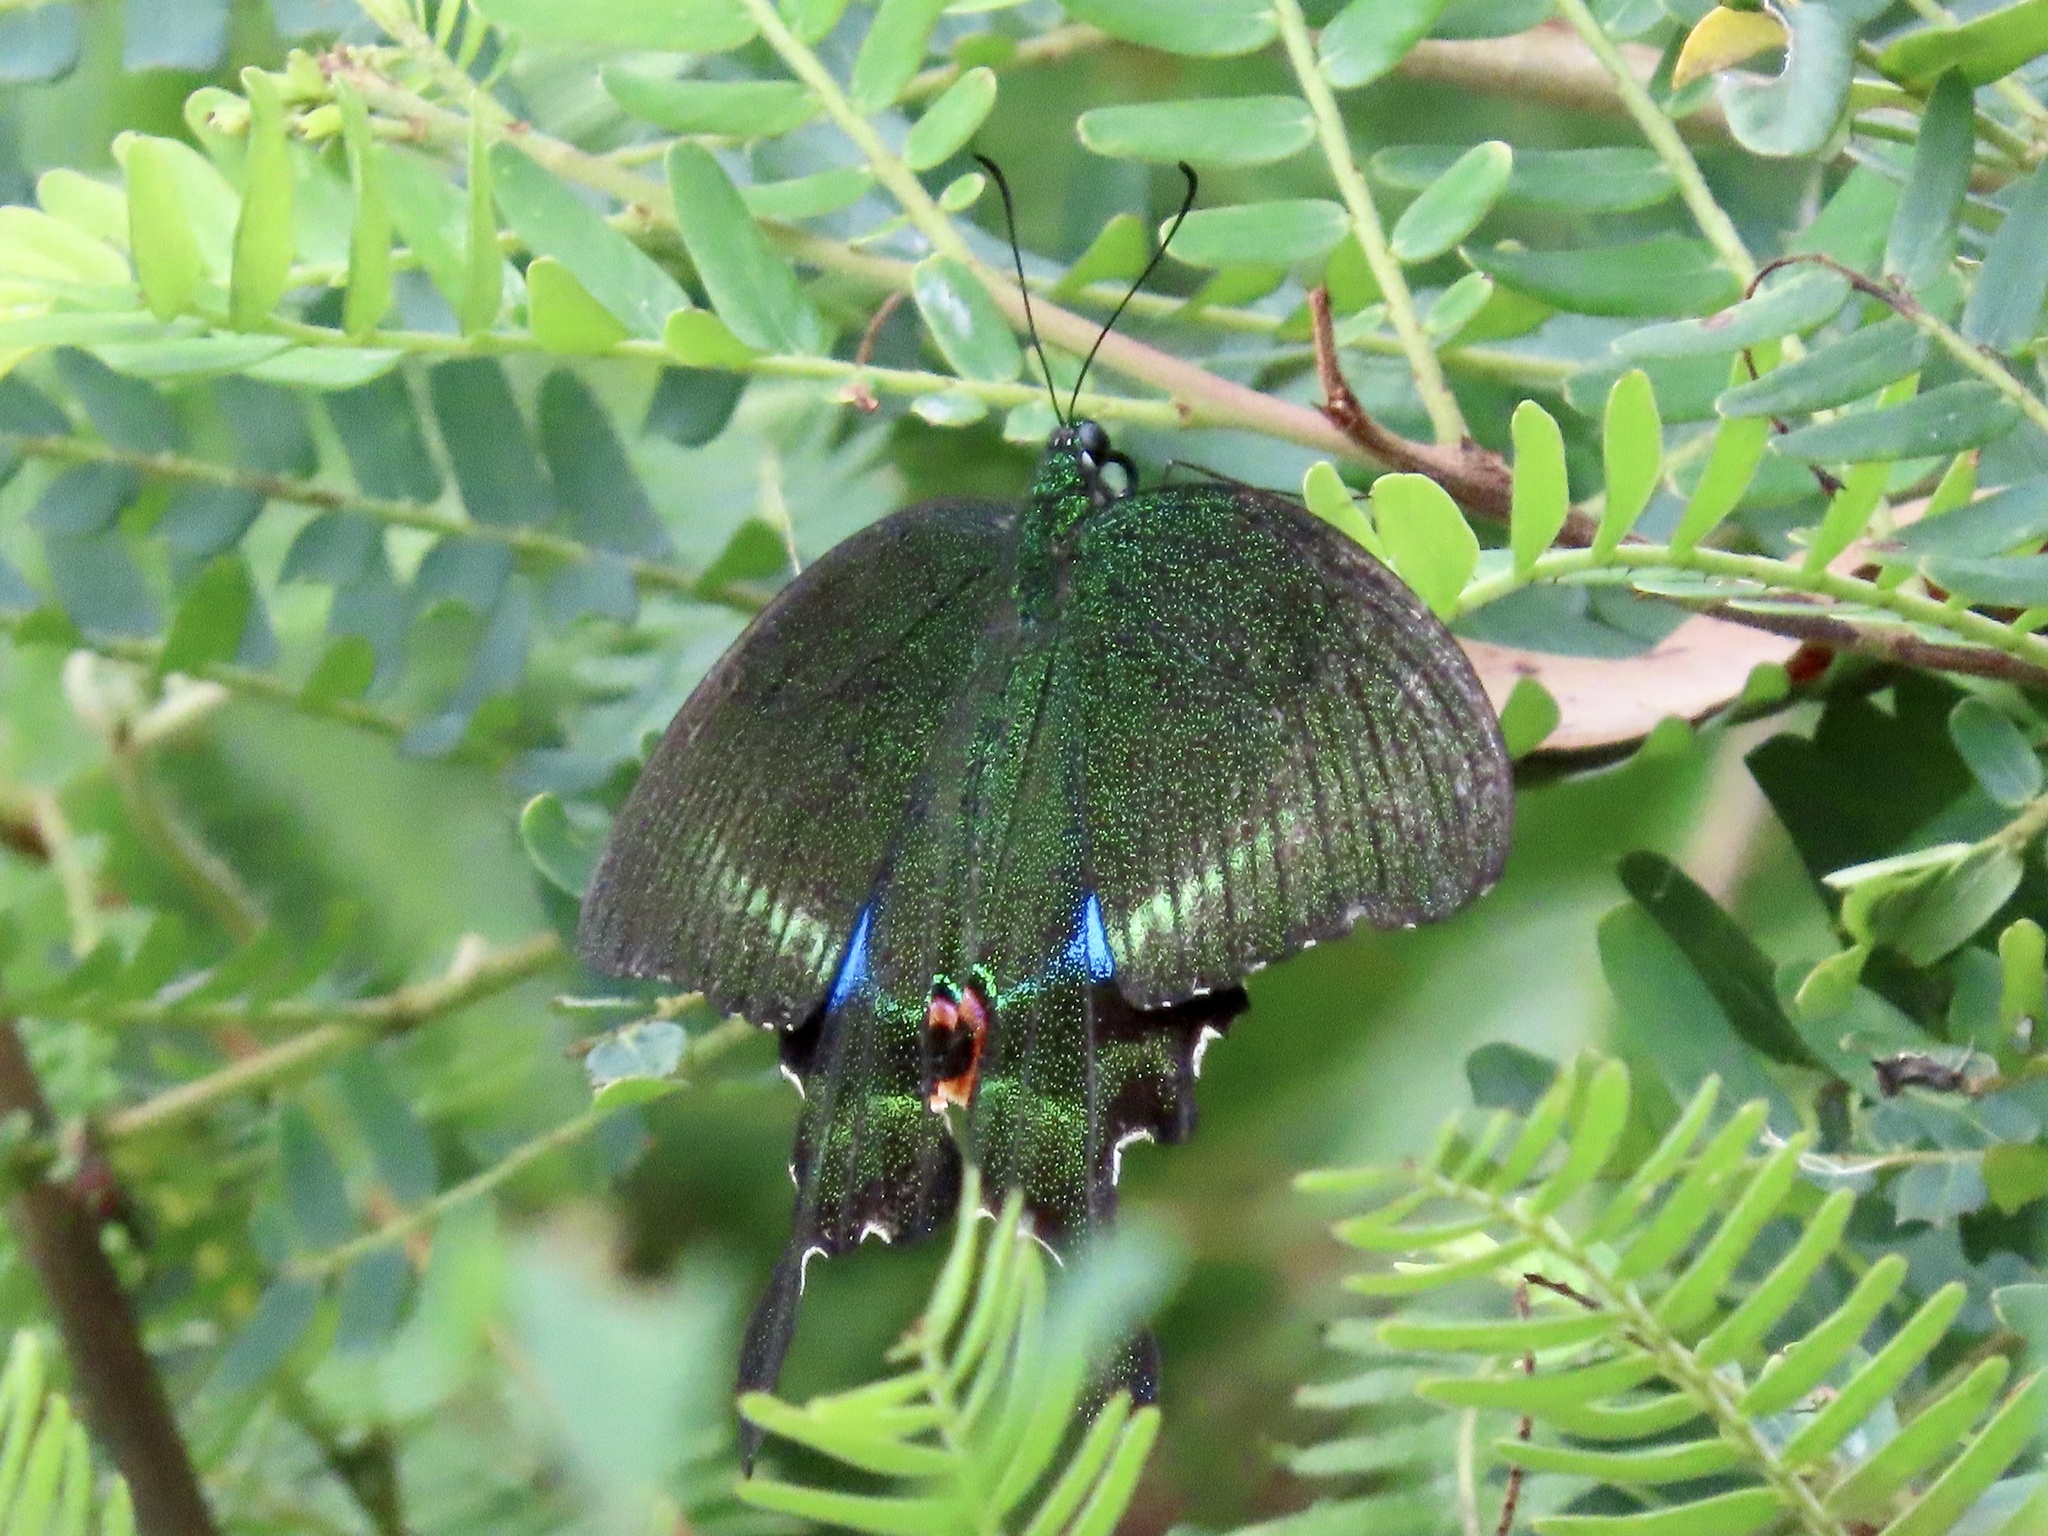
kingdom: Animalia
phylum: Arthropoda
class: Insecta
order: Lepidoptera
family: Papilionidae
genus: Papilio
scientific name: Papilio paris
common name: Paris peacock
